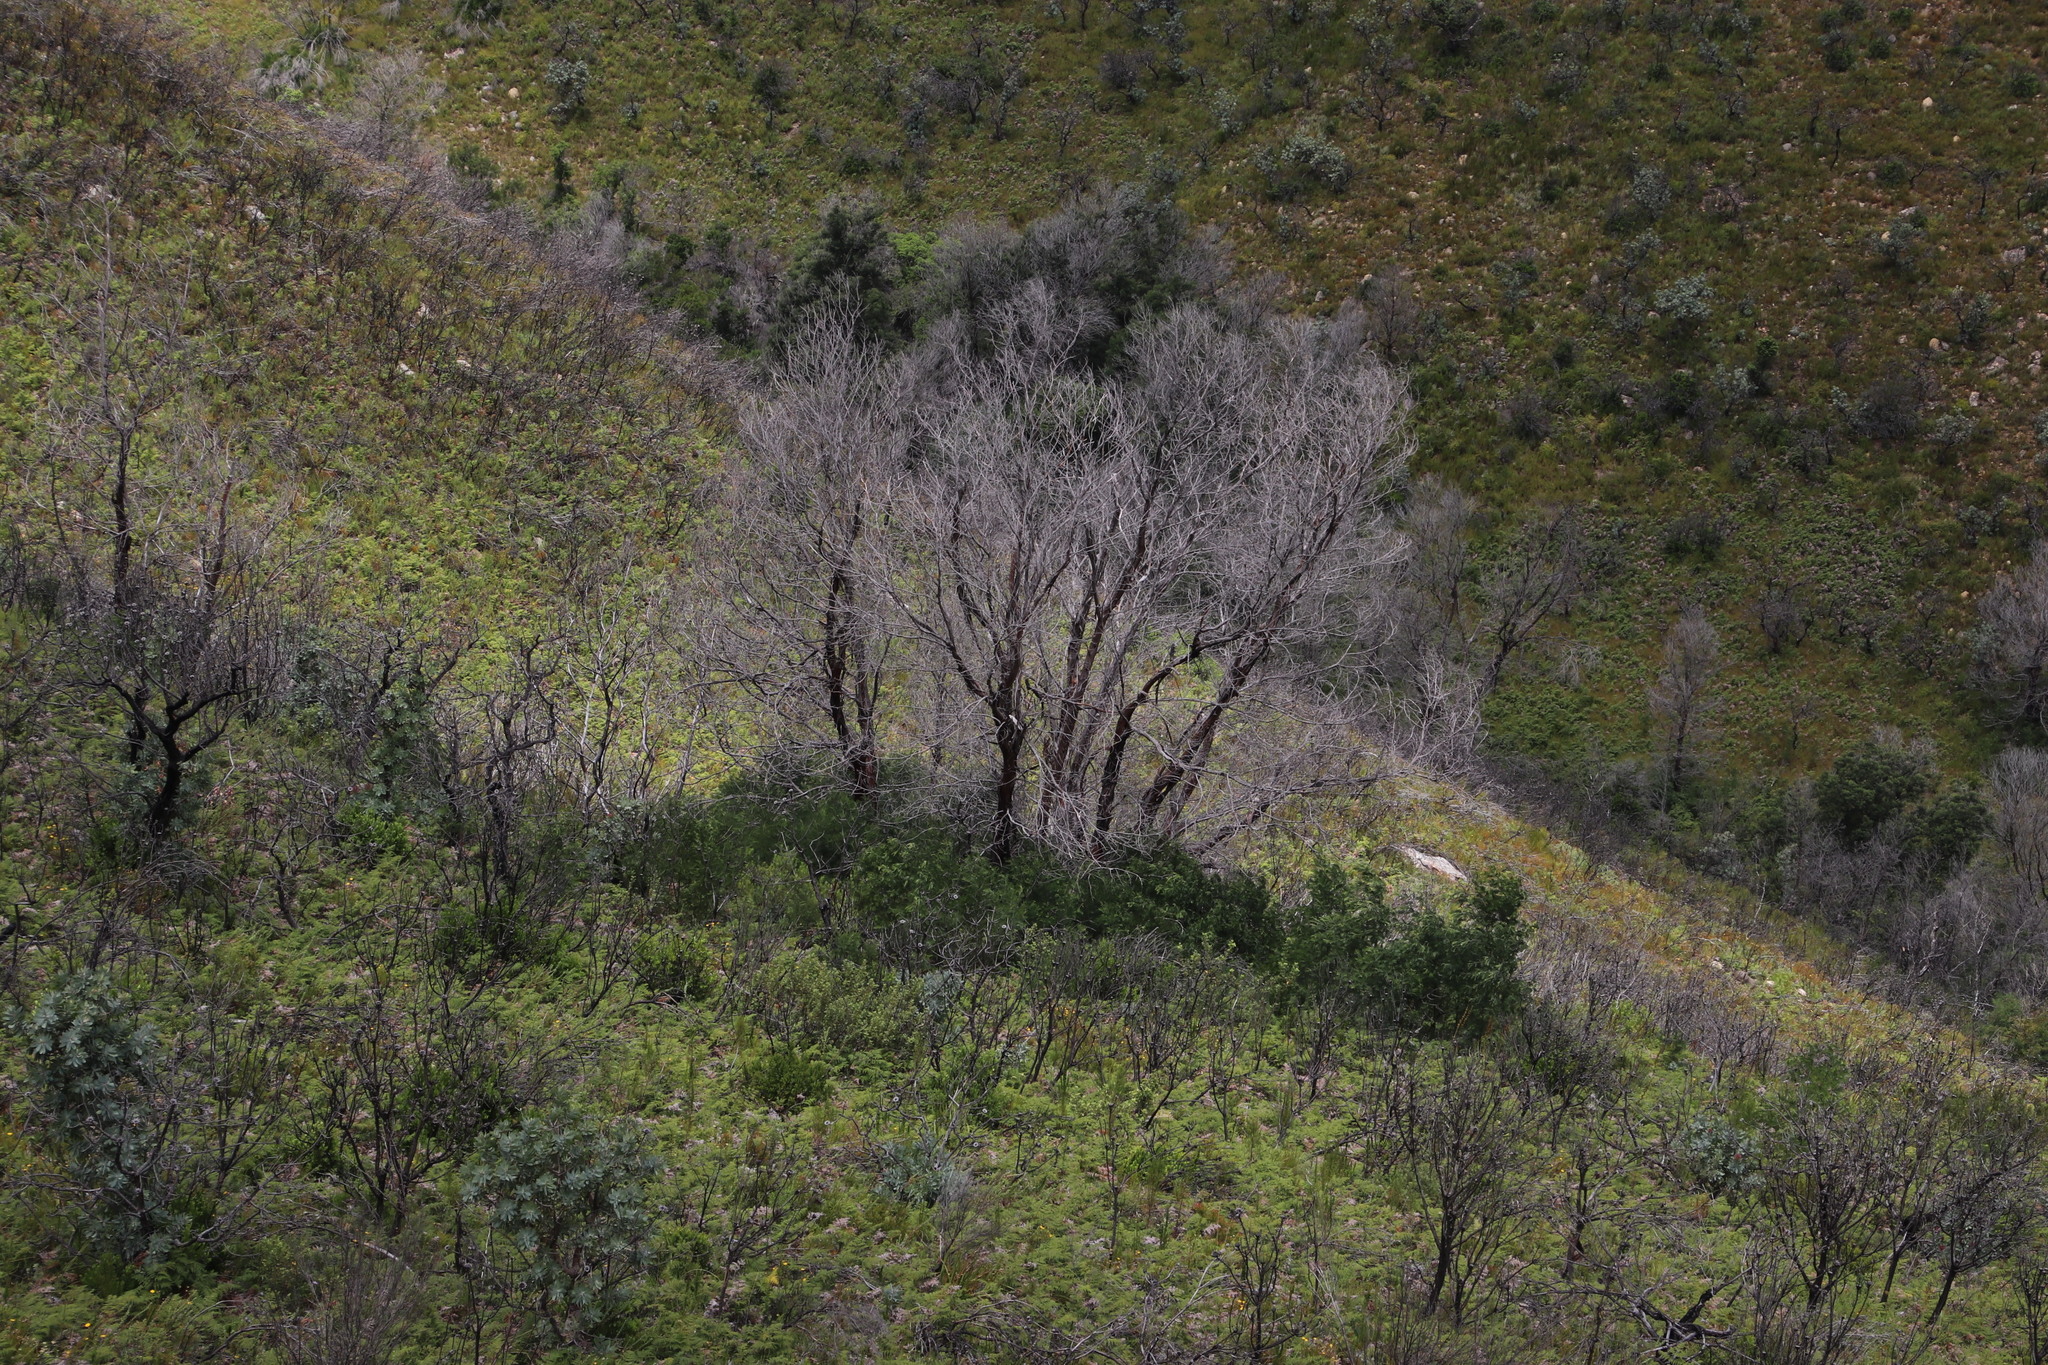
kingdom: Plantae
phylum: Tracheophyta
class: Magnoliopsida
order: Fabales
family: Fabaceae
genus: Acacia
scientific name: Acacia mearnsii
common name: Black wattle
